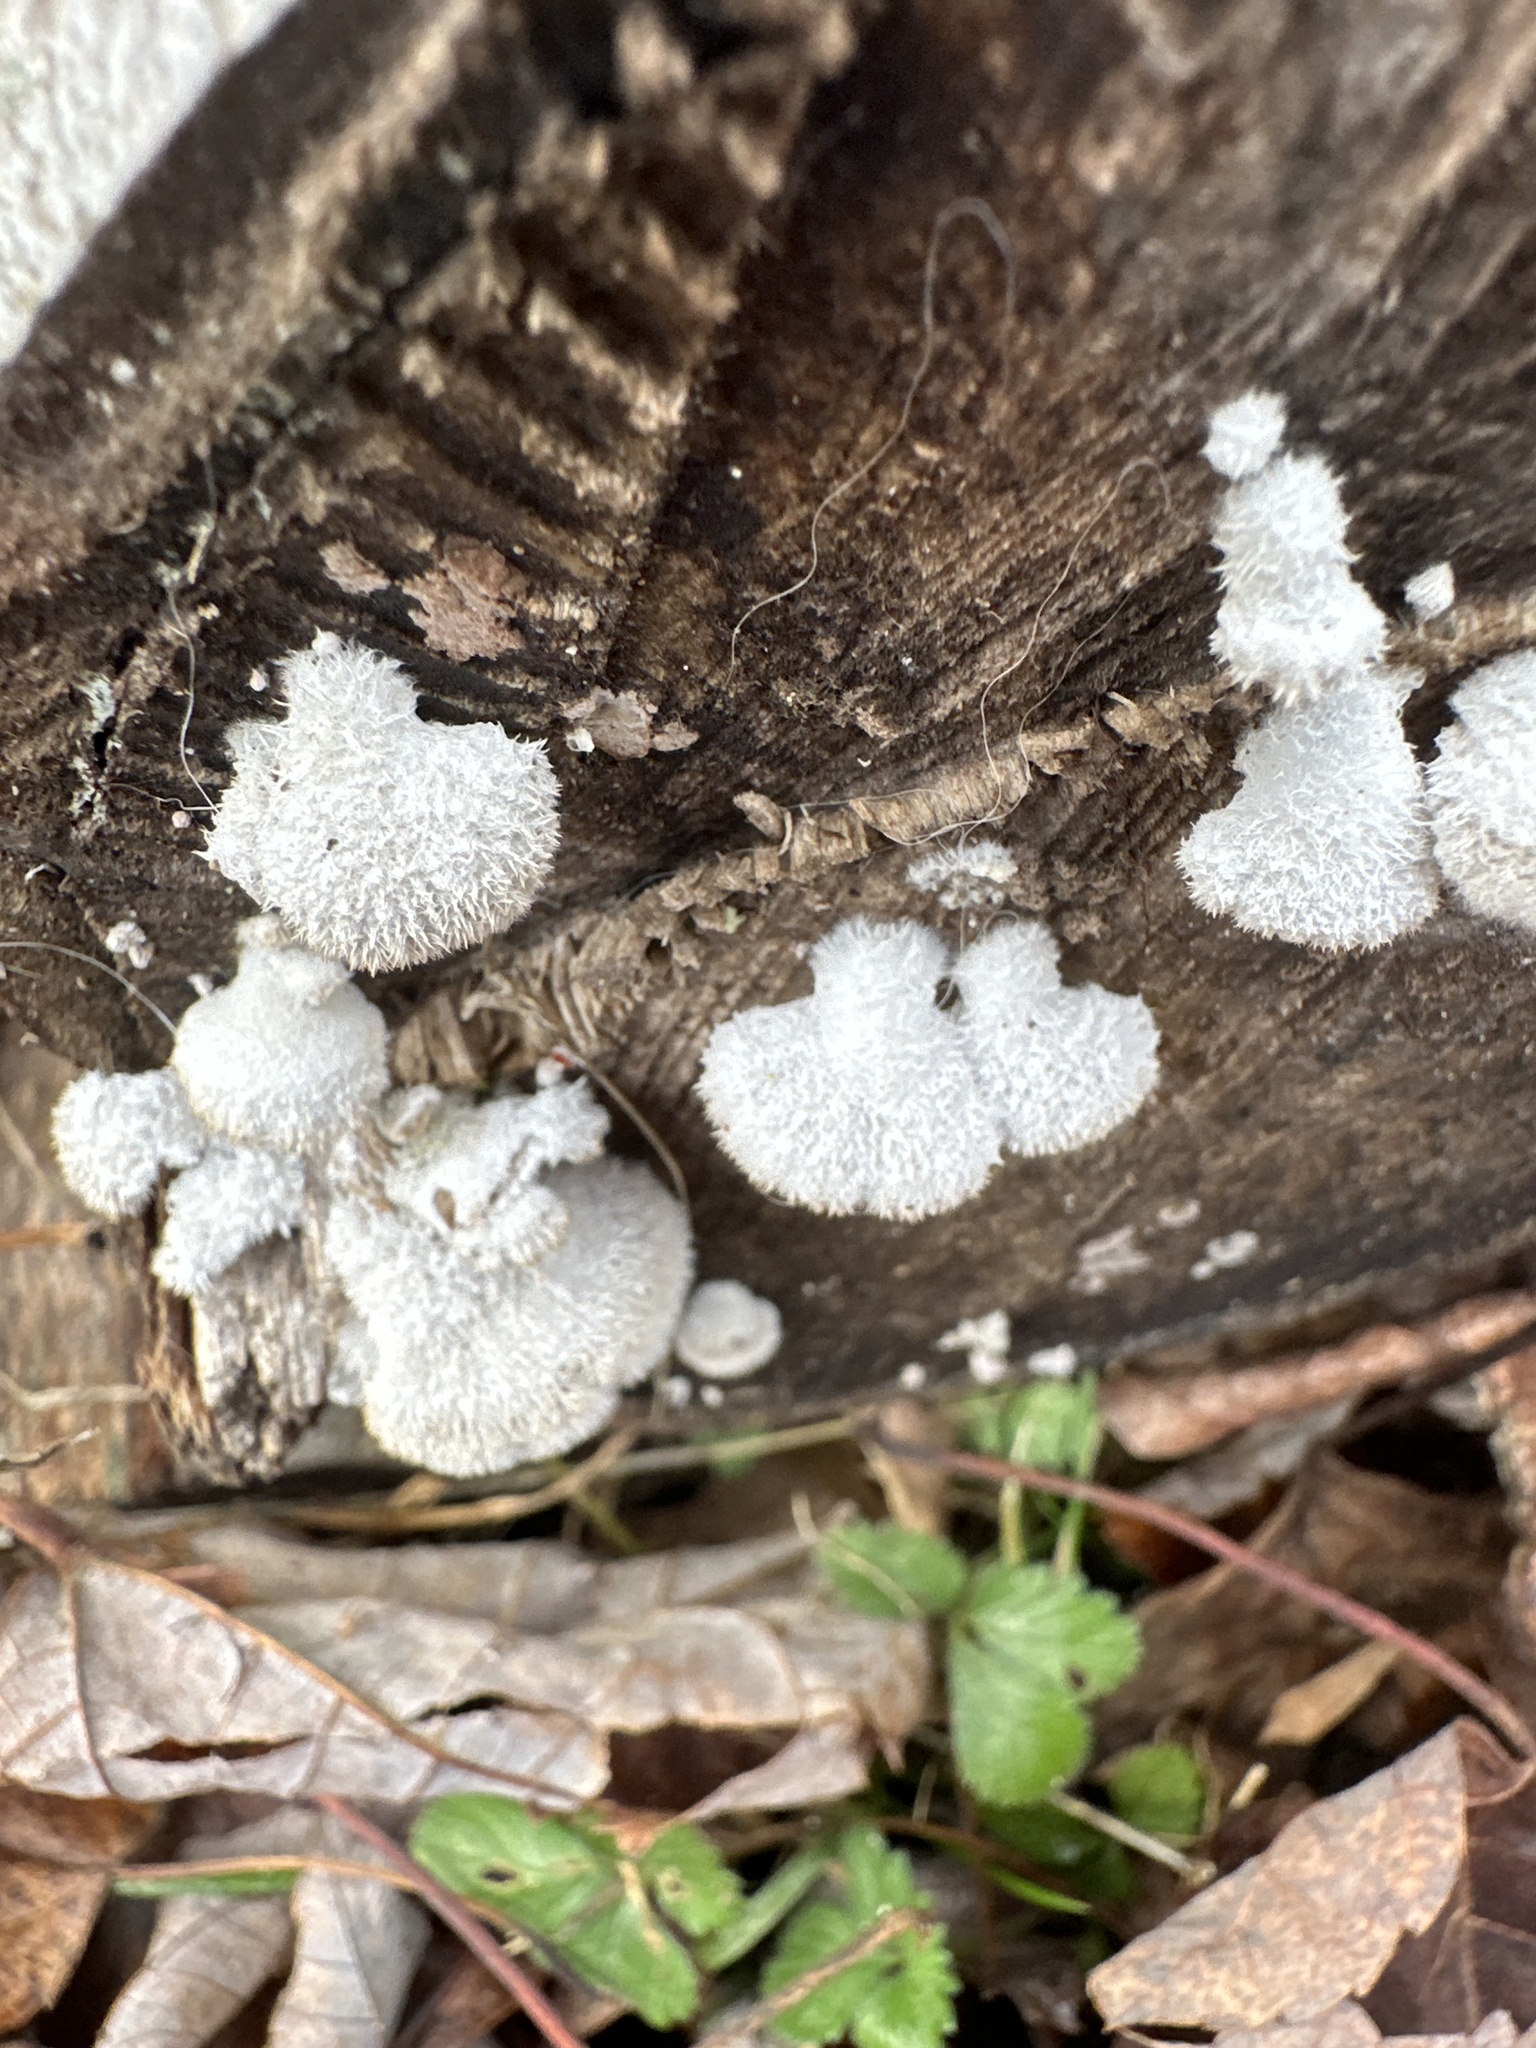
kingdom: Fungi
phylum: Basidiomycota
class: Agaricomycetes
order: Agaricales
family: Schizophyllaceae
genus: Schizophyllum
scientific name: Schizophyllum commune
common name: Common porecrust
